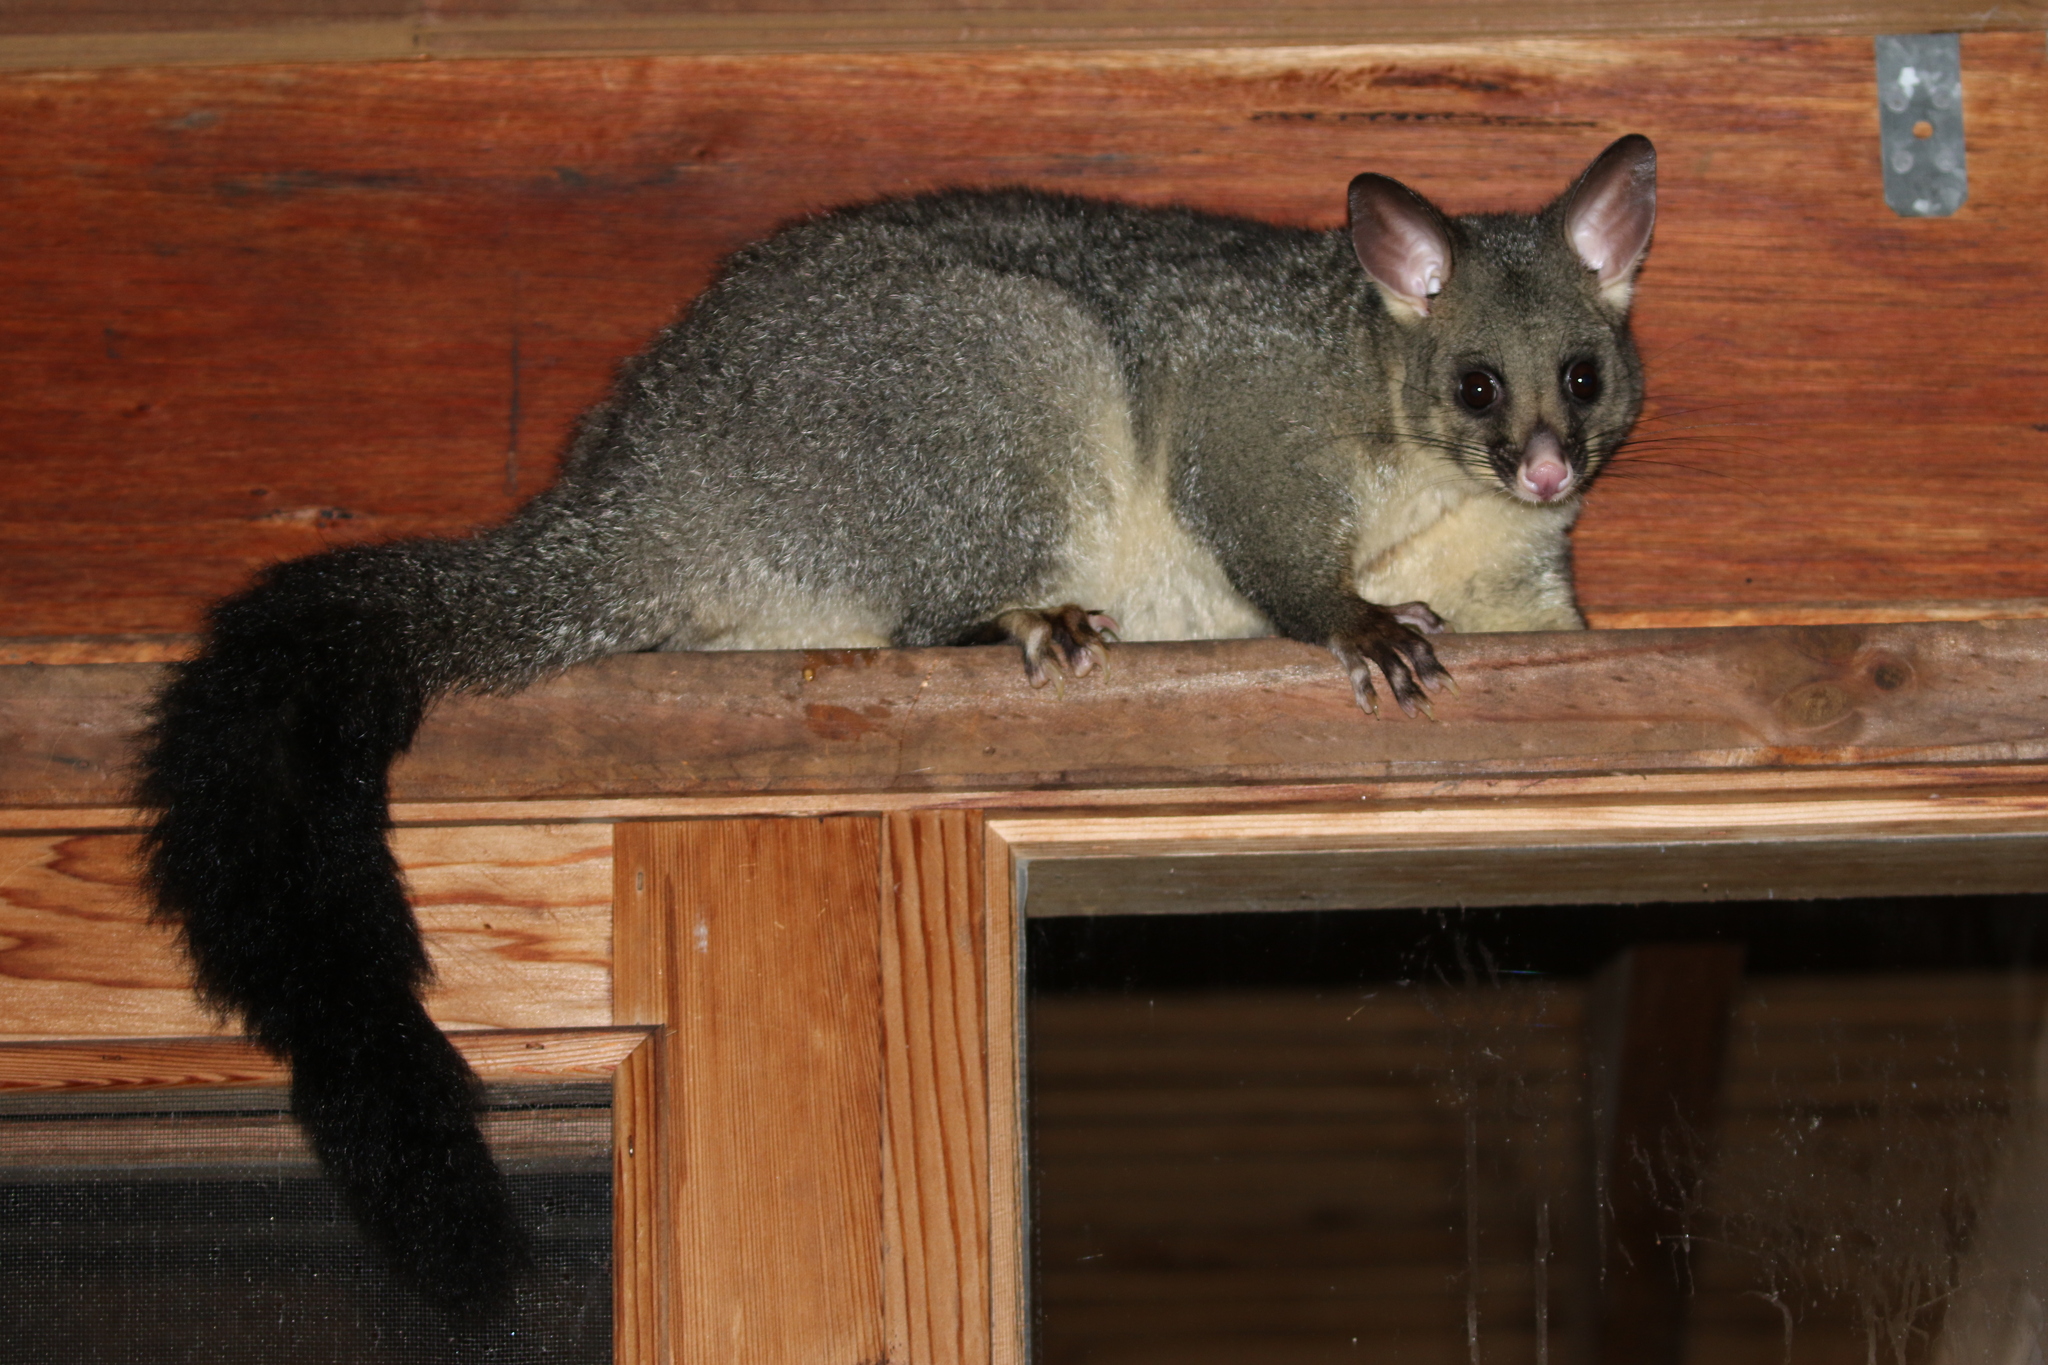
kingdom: Animalia
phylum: Chordata
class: Mammalia
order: Diprotodontia
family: Phalangeridae
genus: Trichosurus
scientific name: Trichosurus vulpecula
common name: Common brushtail
